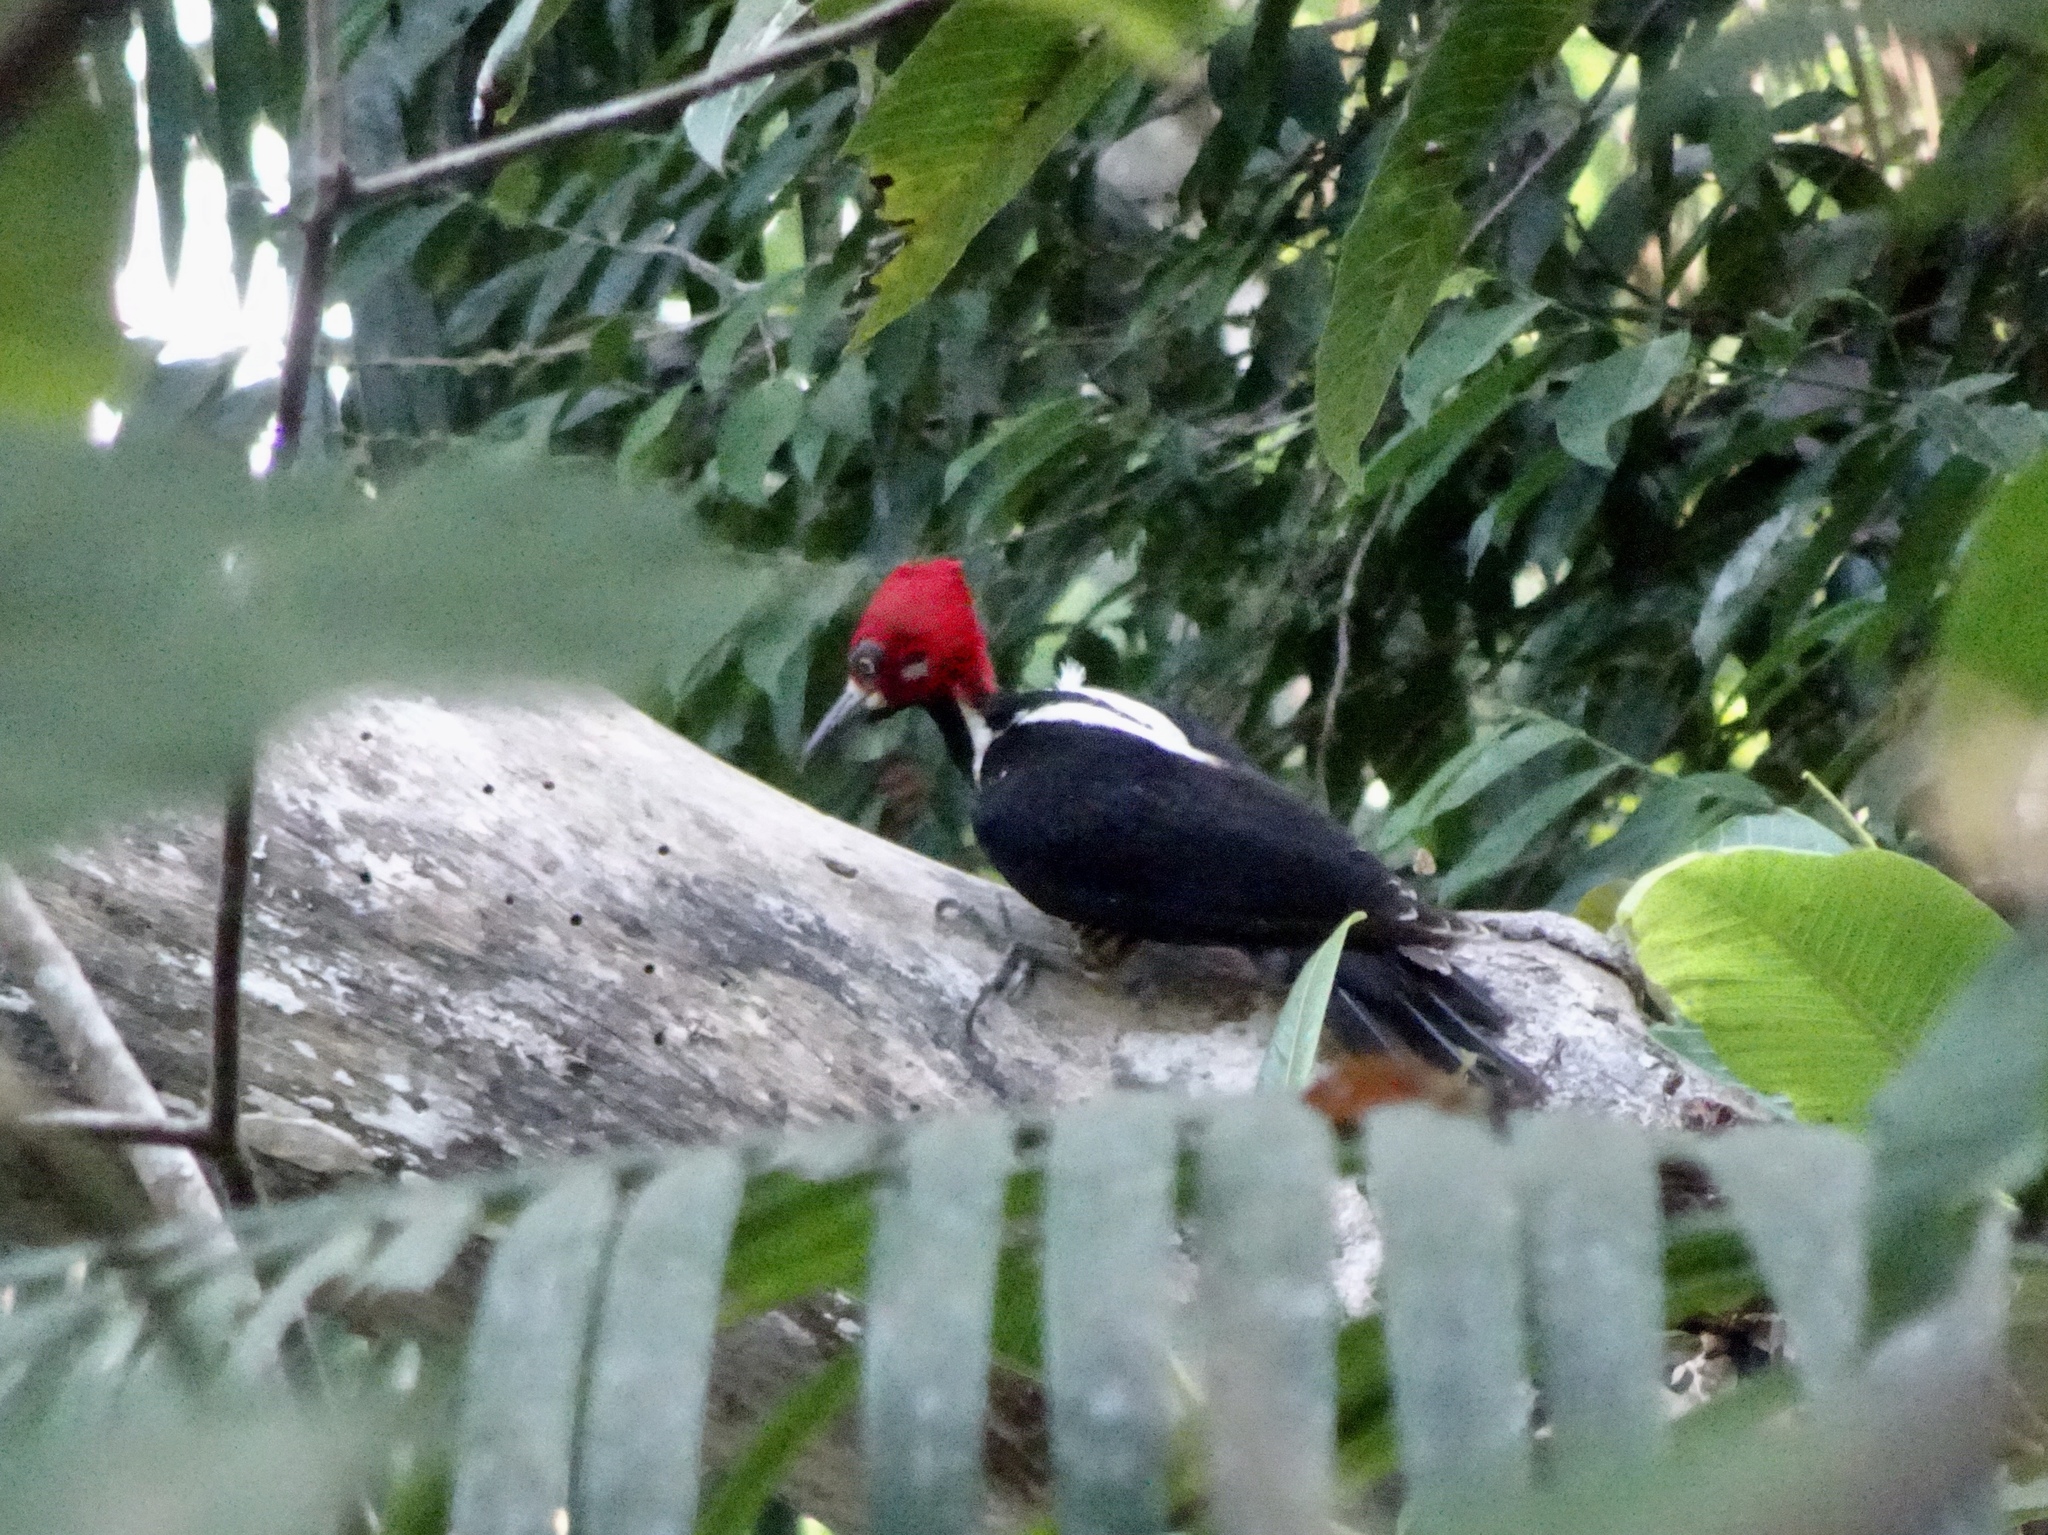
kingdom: Animalia
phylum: Chordata
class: Aves
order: Piciformes
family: Picidae
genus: Campephilus
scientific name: Campephilus melanoleucos
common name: Crimson-crested woodpecker
